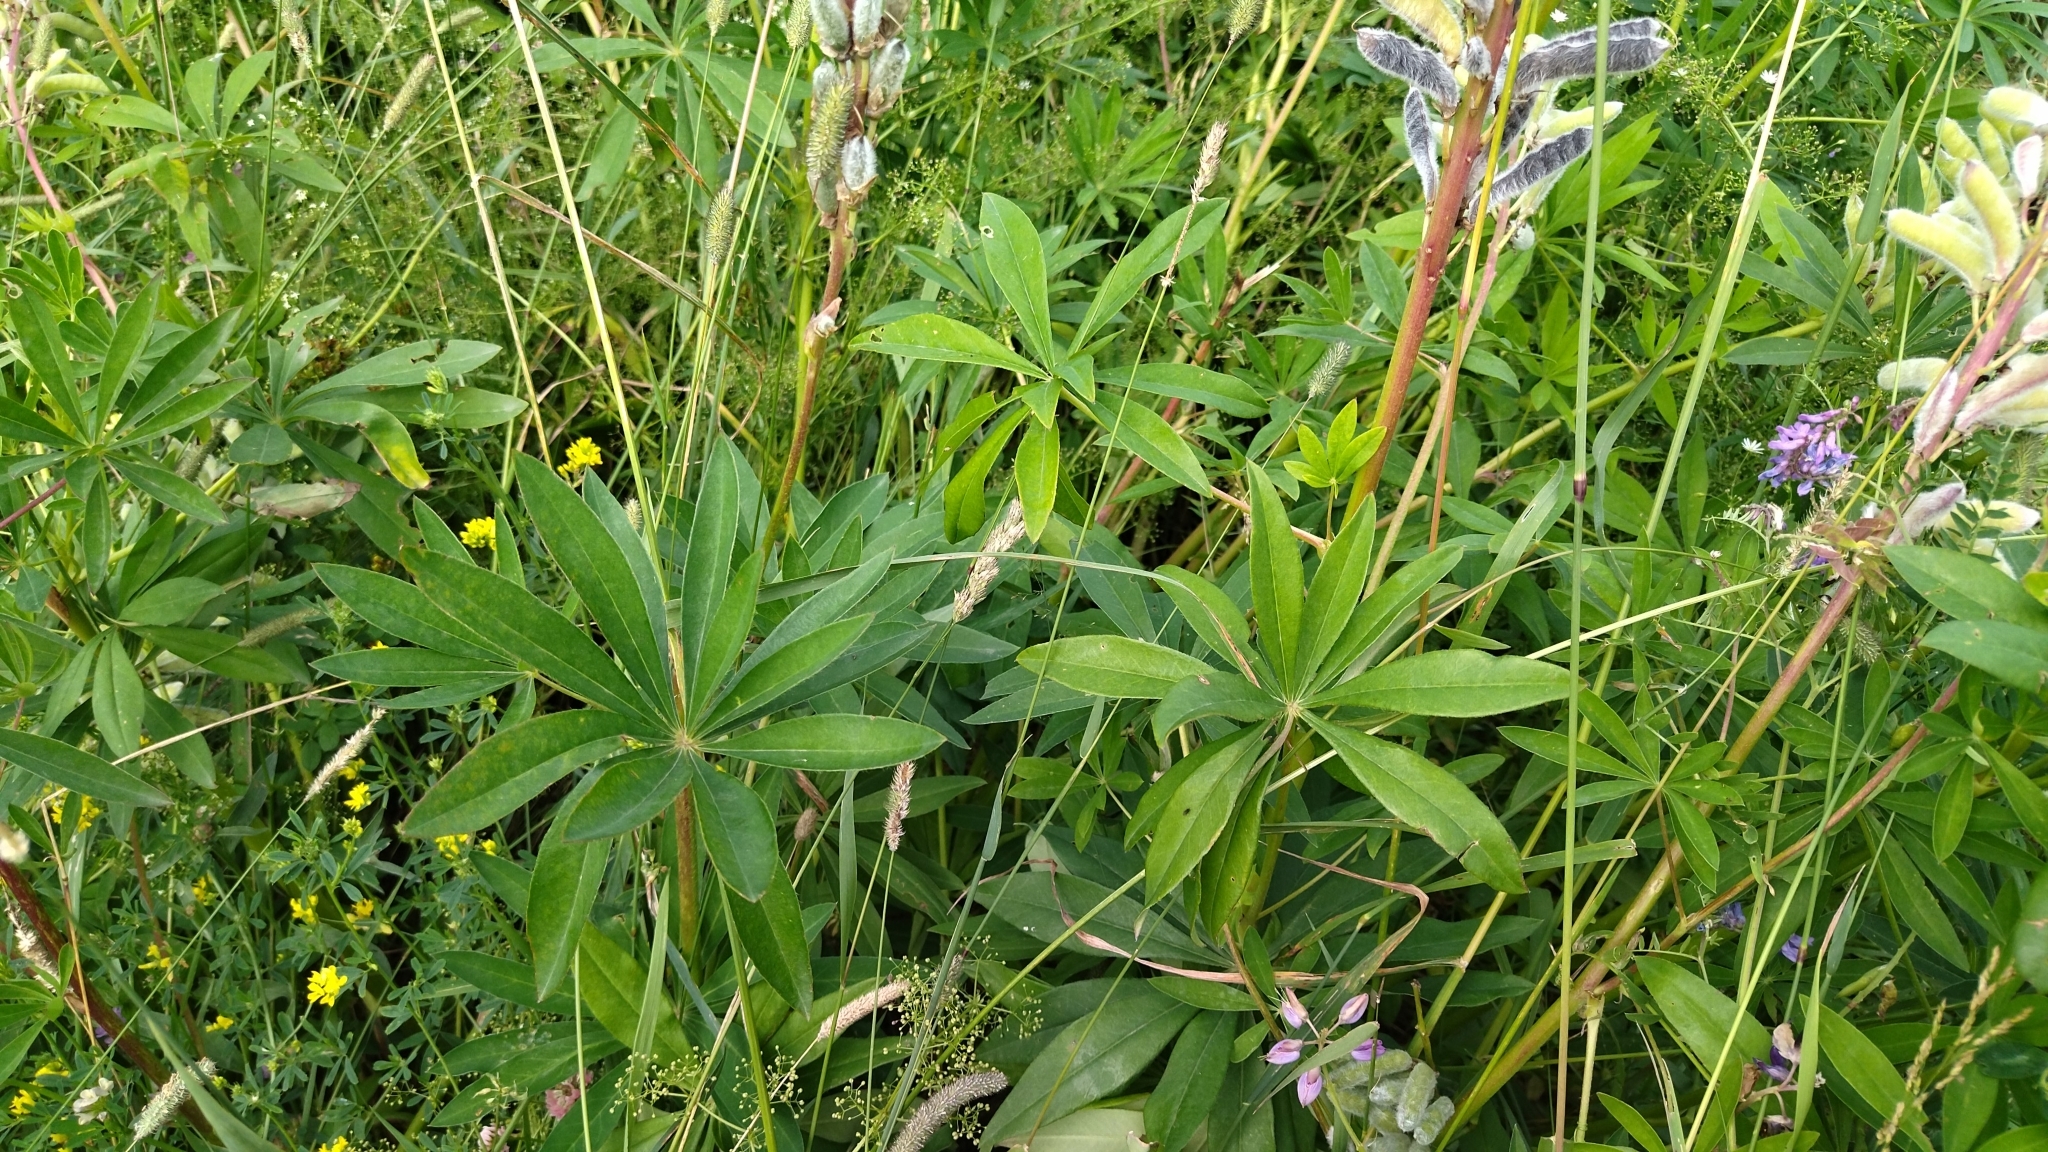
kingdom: Plantae
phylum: Tracheophyta
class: Magnoliopsida
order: Fabales
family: Fabaceae
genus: Lupinus
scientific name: Lupinus polyphyllus
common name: Garden lupin
